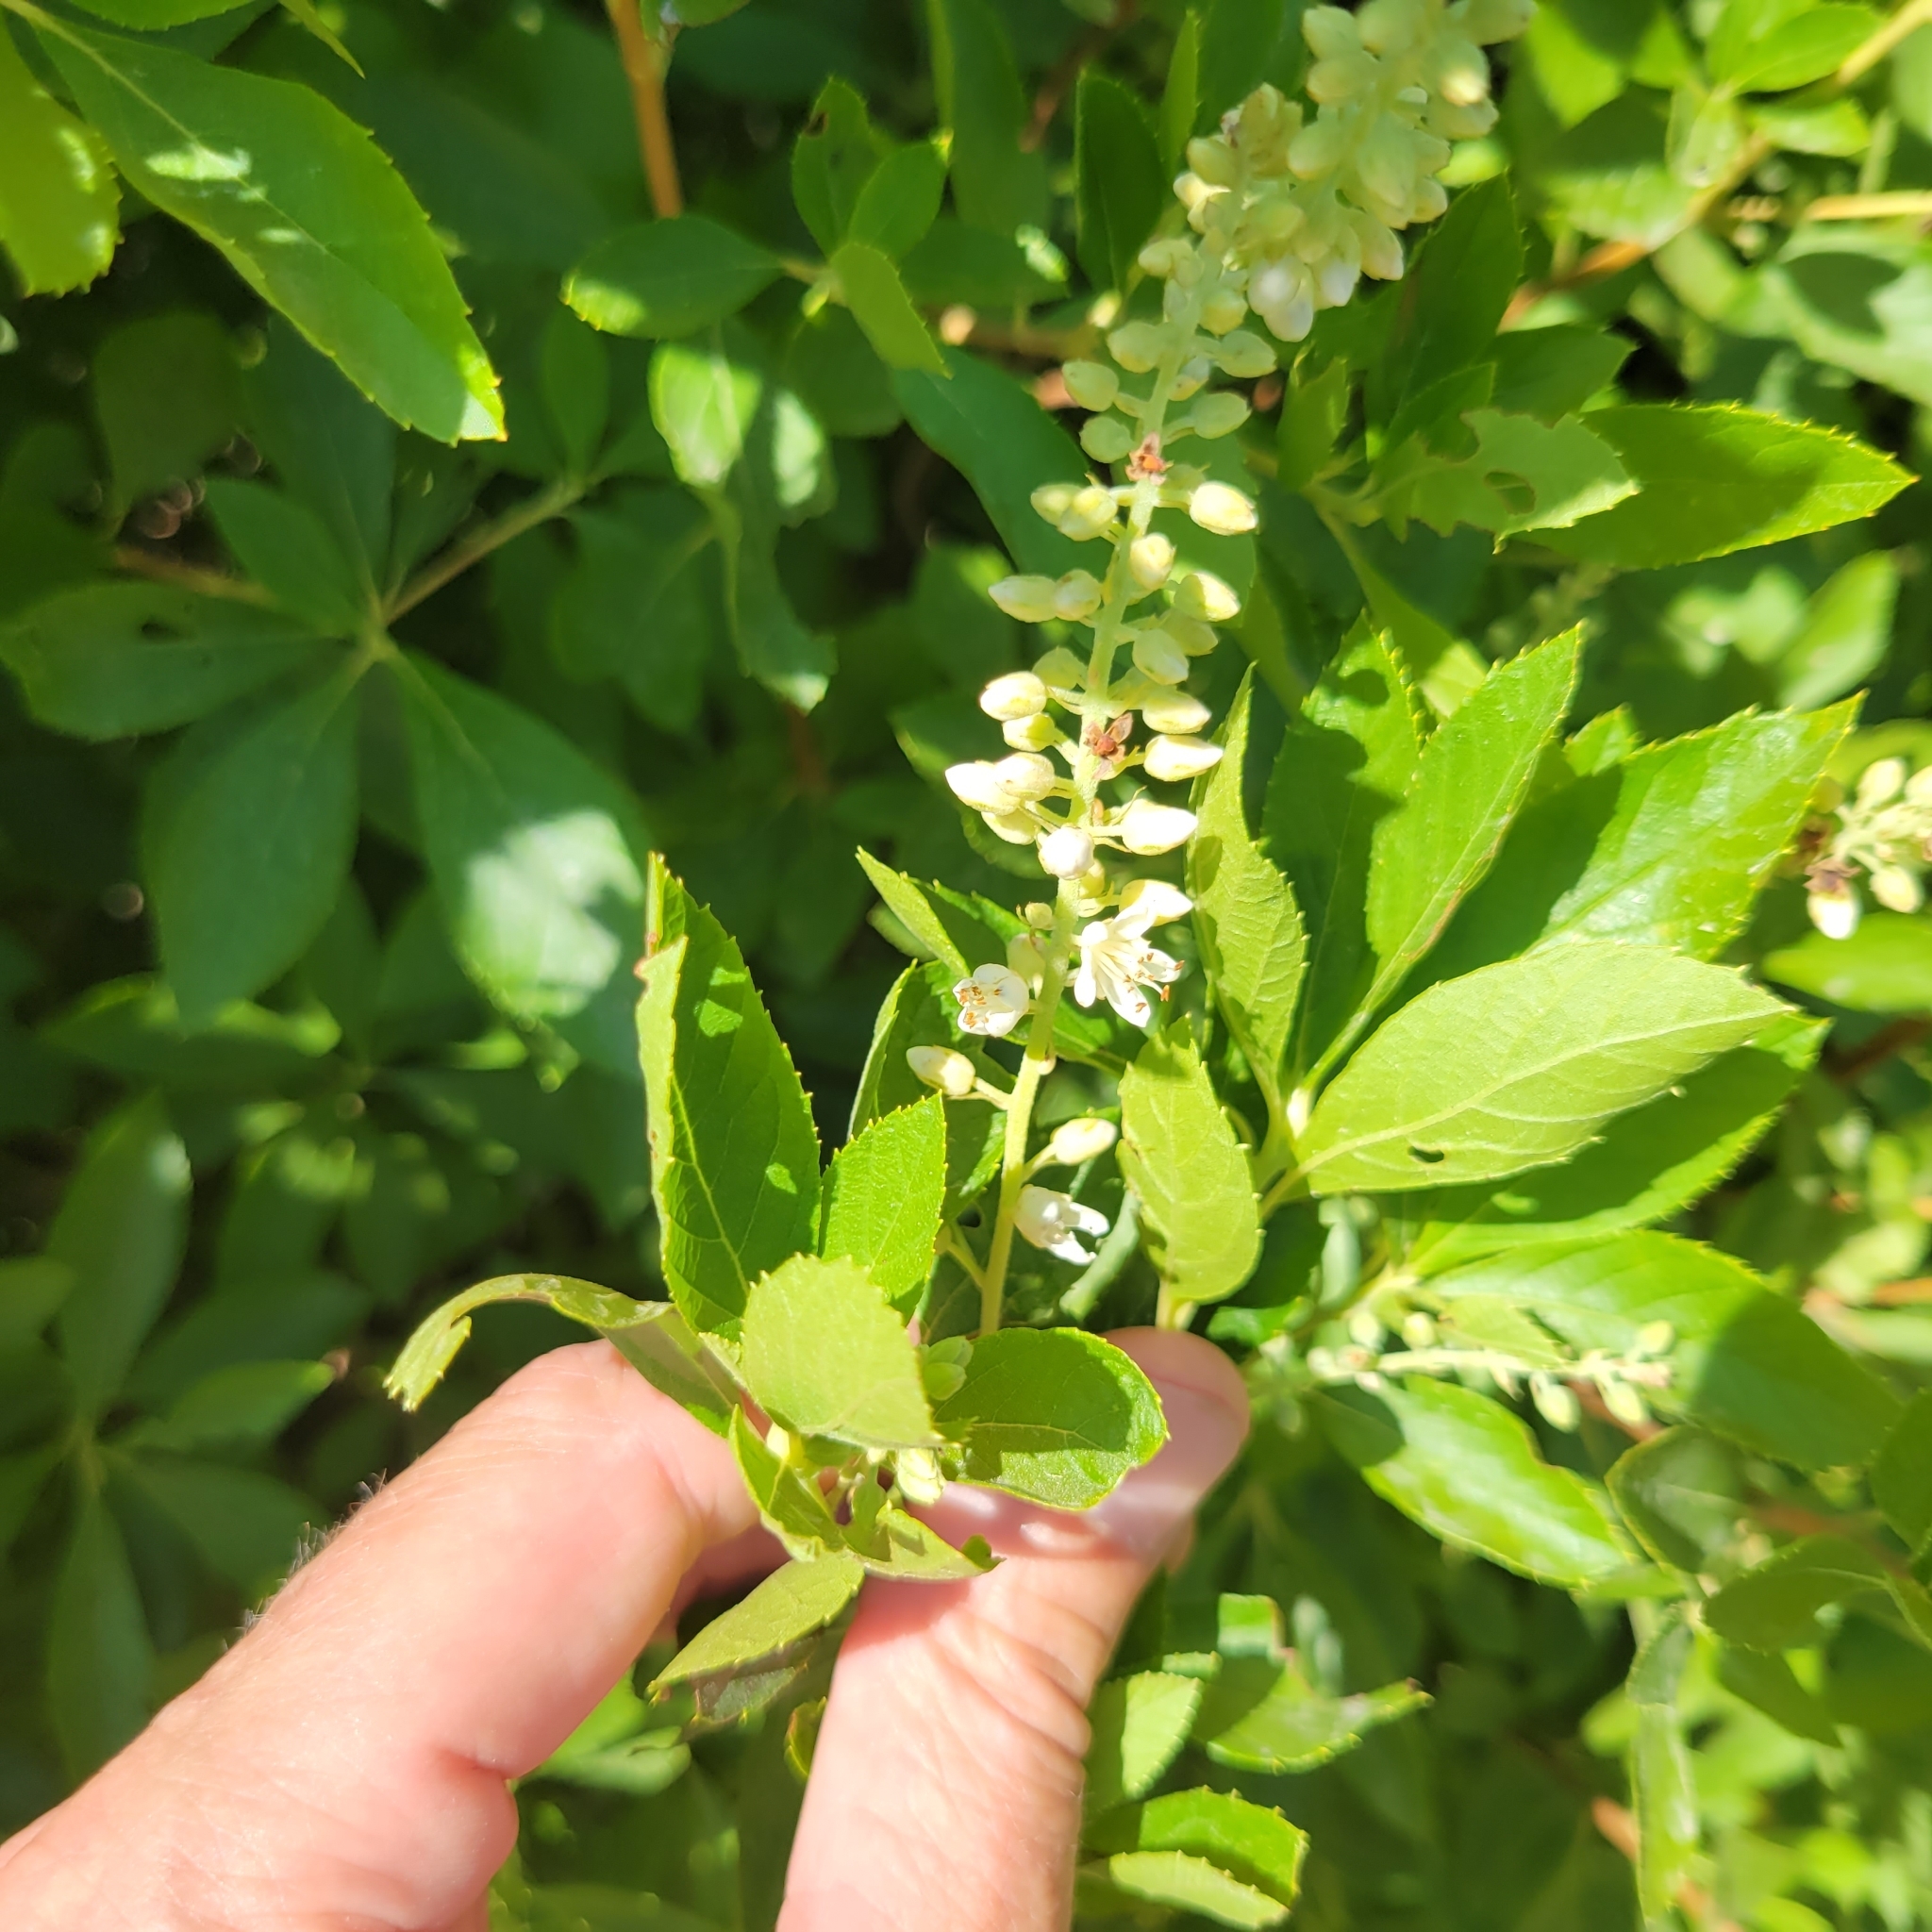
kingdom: Plantae
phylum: Tracheophyta
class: Magnoliopsida
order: Ericales
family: Clethraceae
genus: Clethra
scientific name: Clethra alnifolia
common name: Sweet pepperbush
